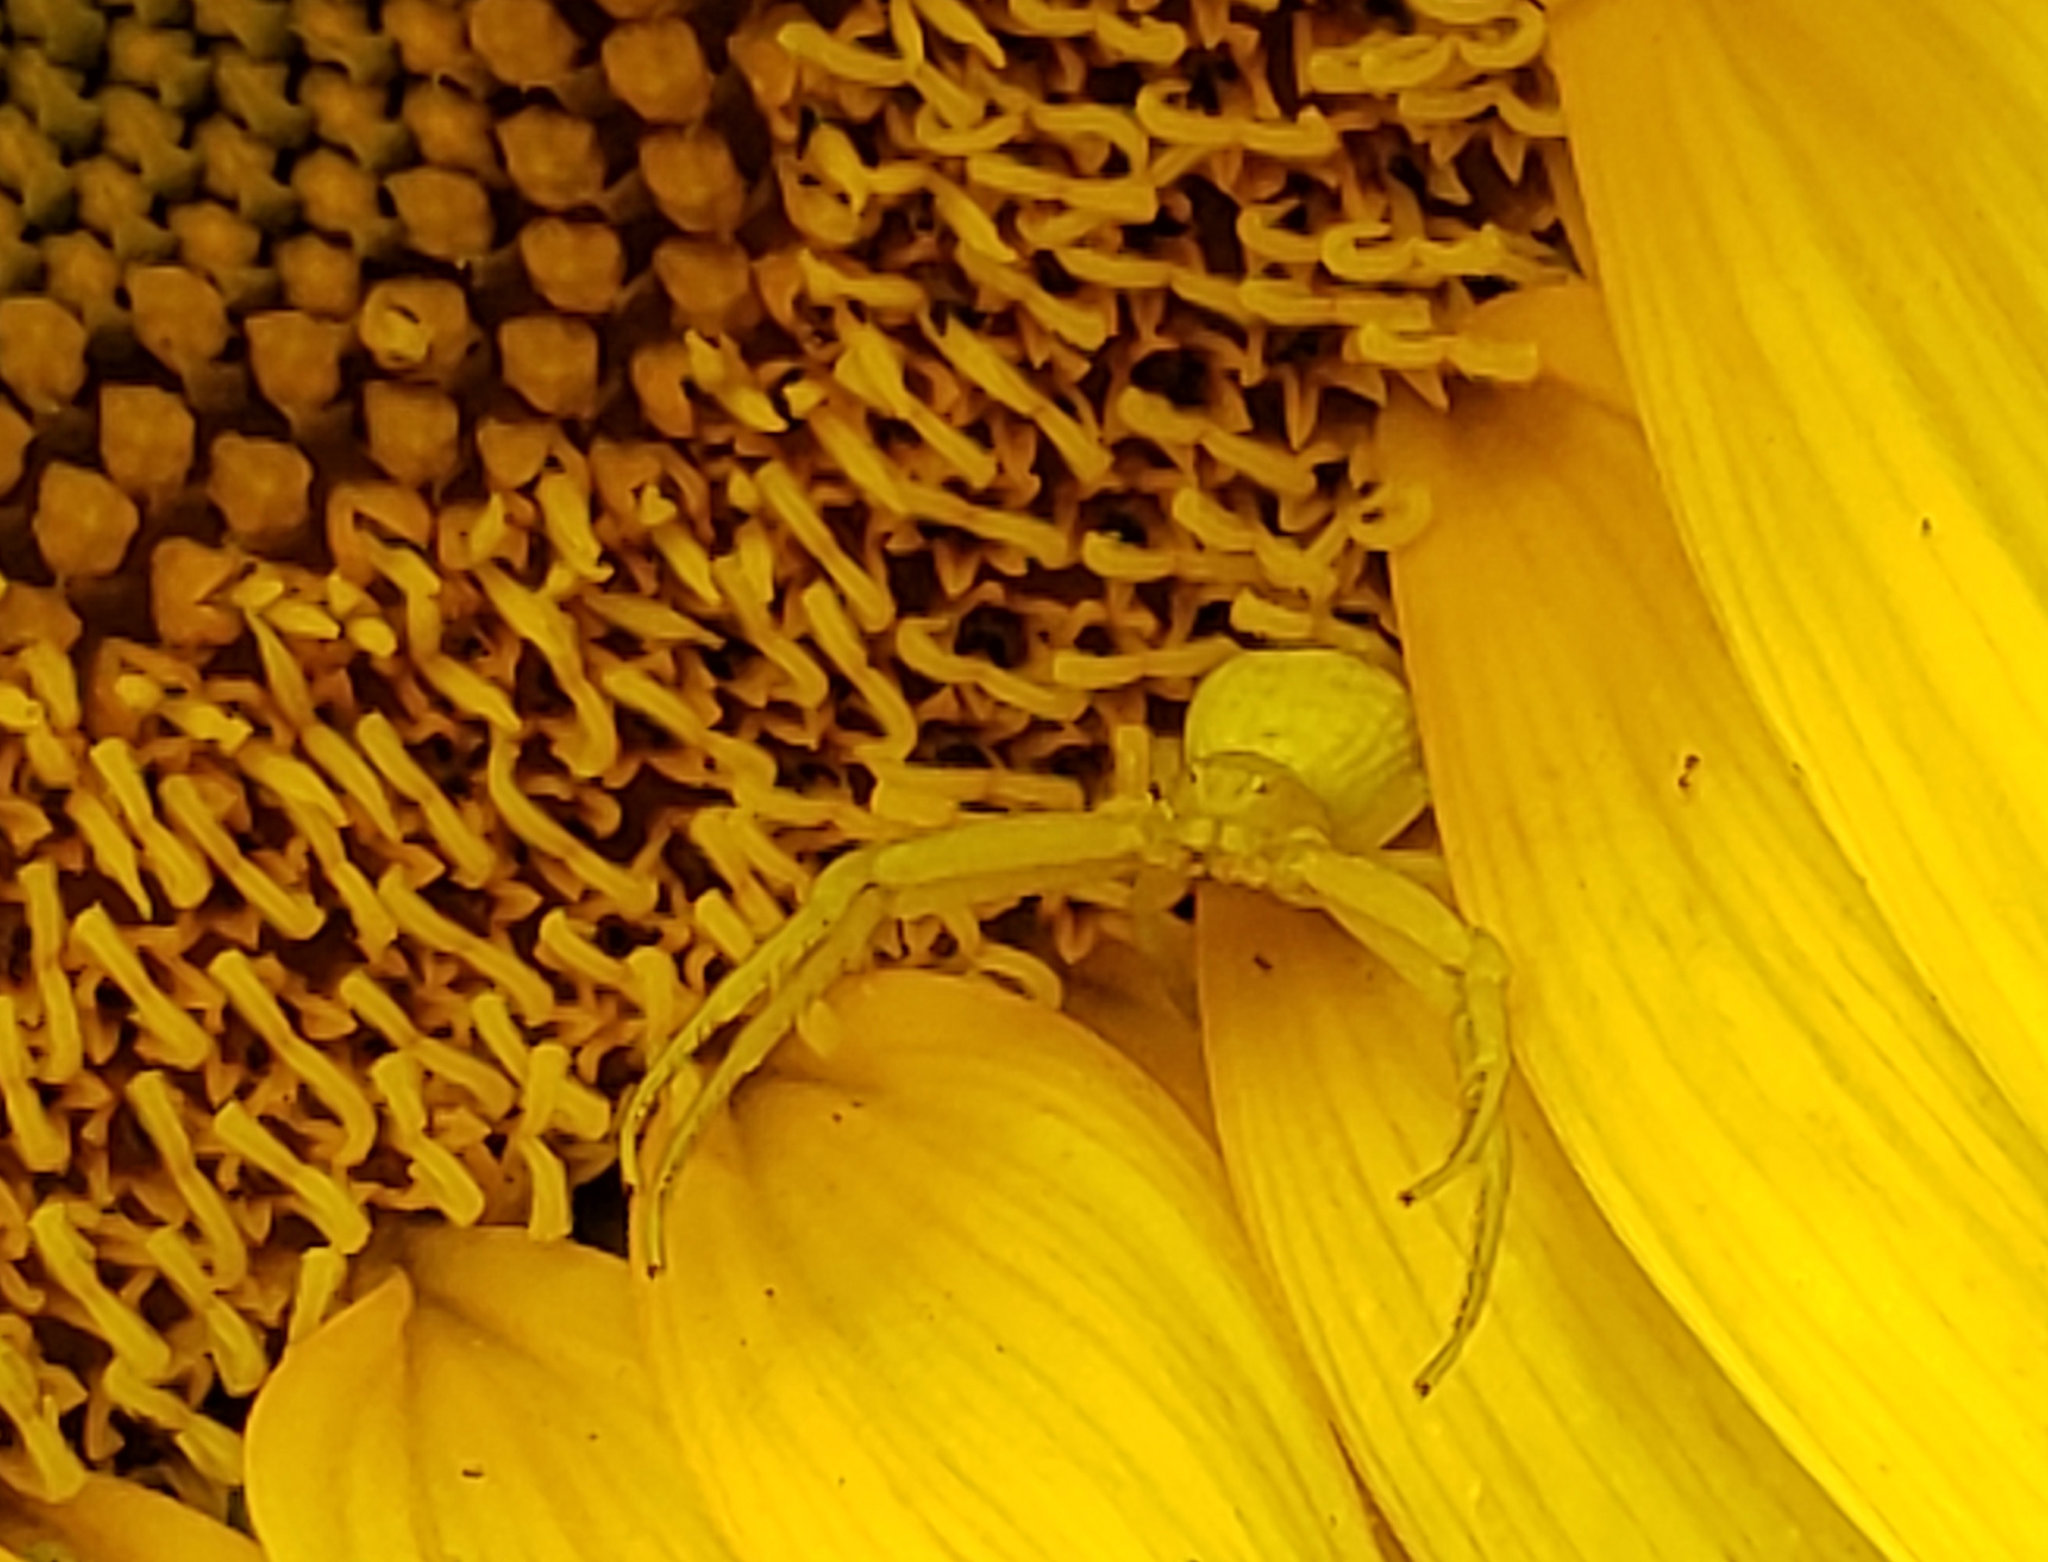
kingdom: Animalia
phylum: Arthropoda
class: Arachnida
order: Araneae
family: Thomisidae
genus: Misumena
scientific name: Misumena vatia
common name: Goldenrod crab spider
